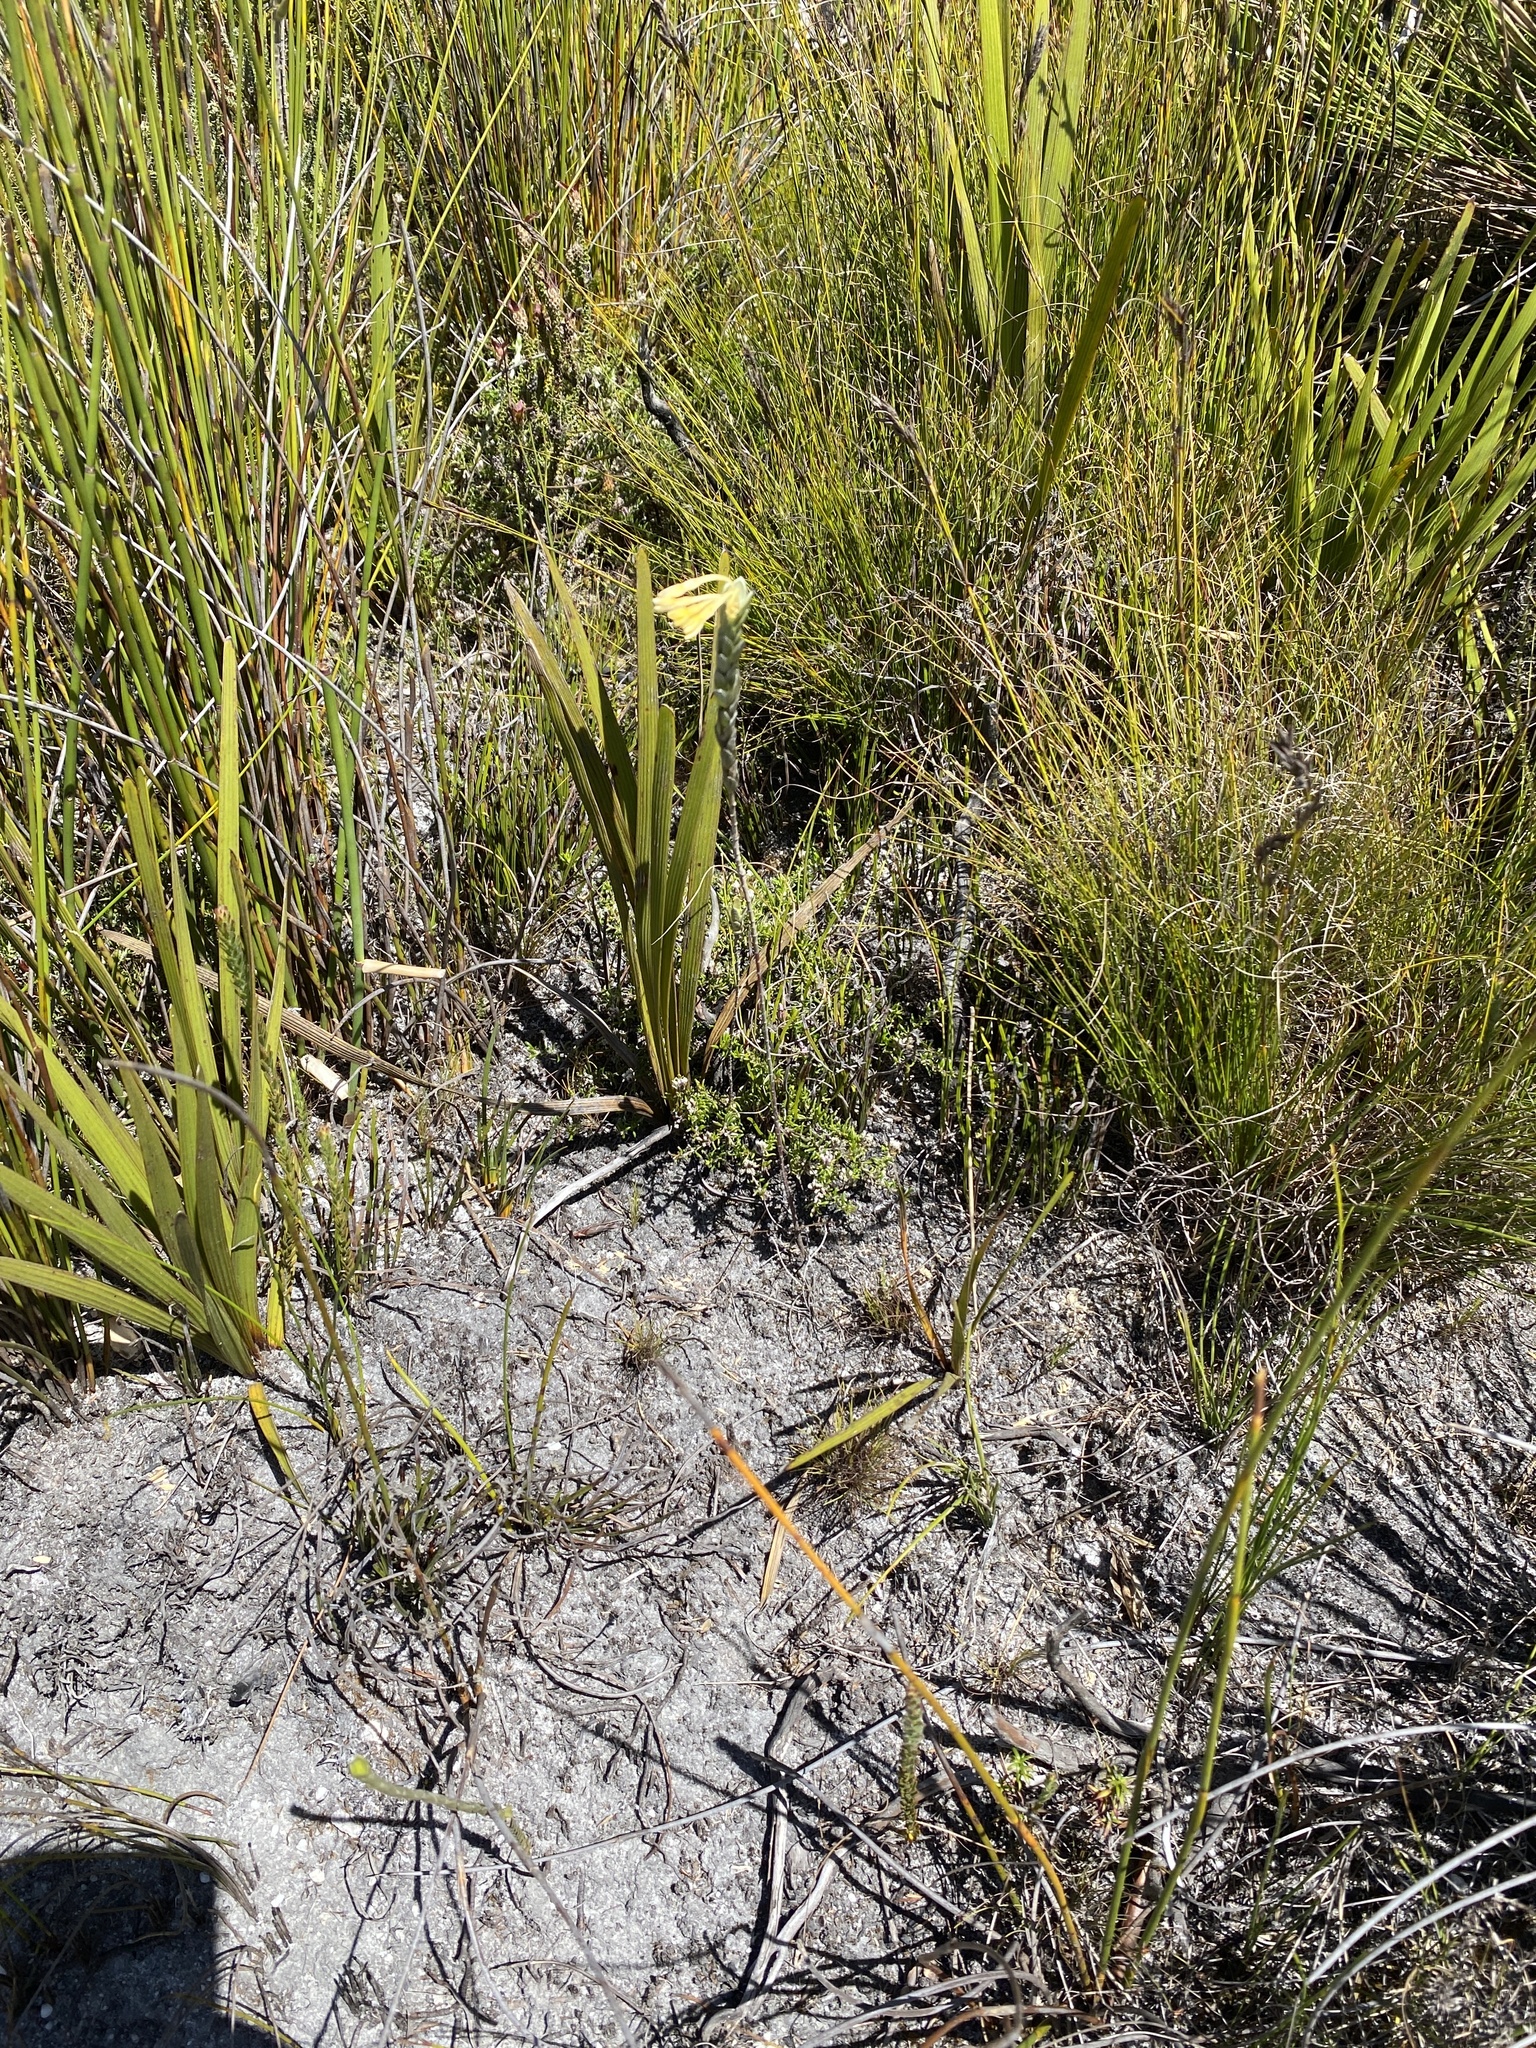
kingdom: Plantae
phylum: Tracheophyta
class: Magnoliopsida
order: Malvales
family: Thymelaeaceae
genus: Gnidia
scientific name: Gnidia anomala
